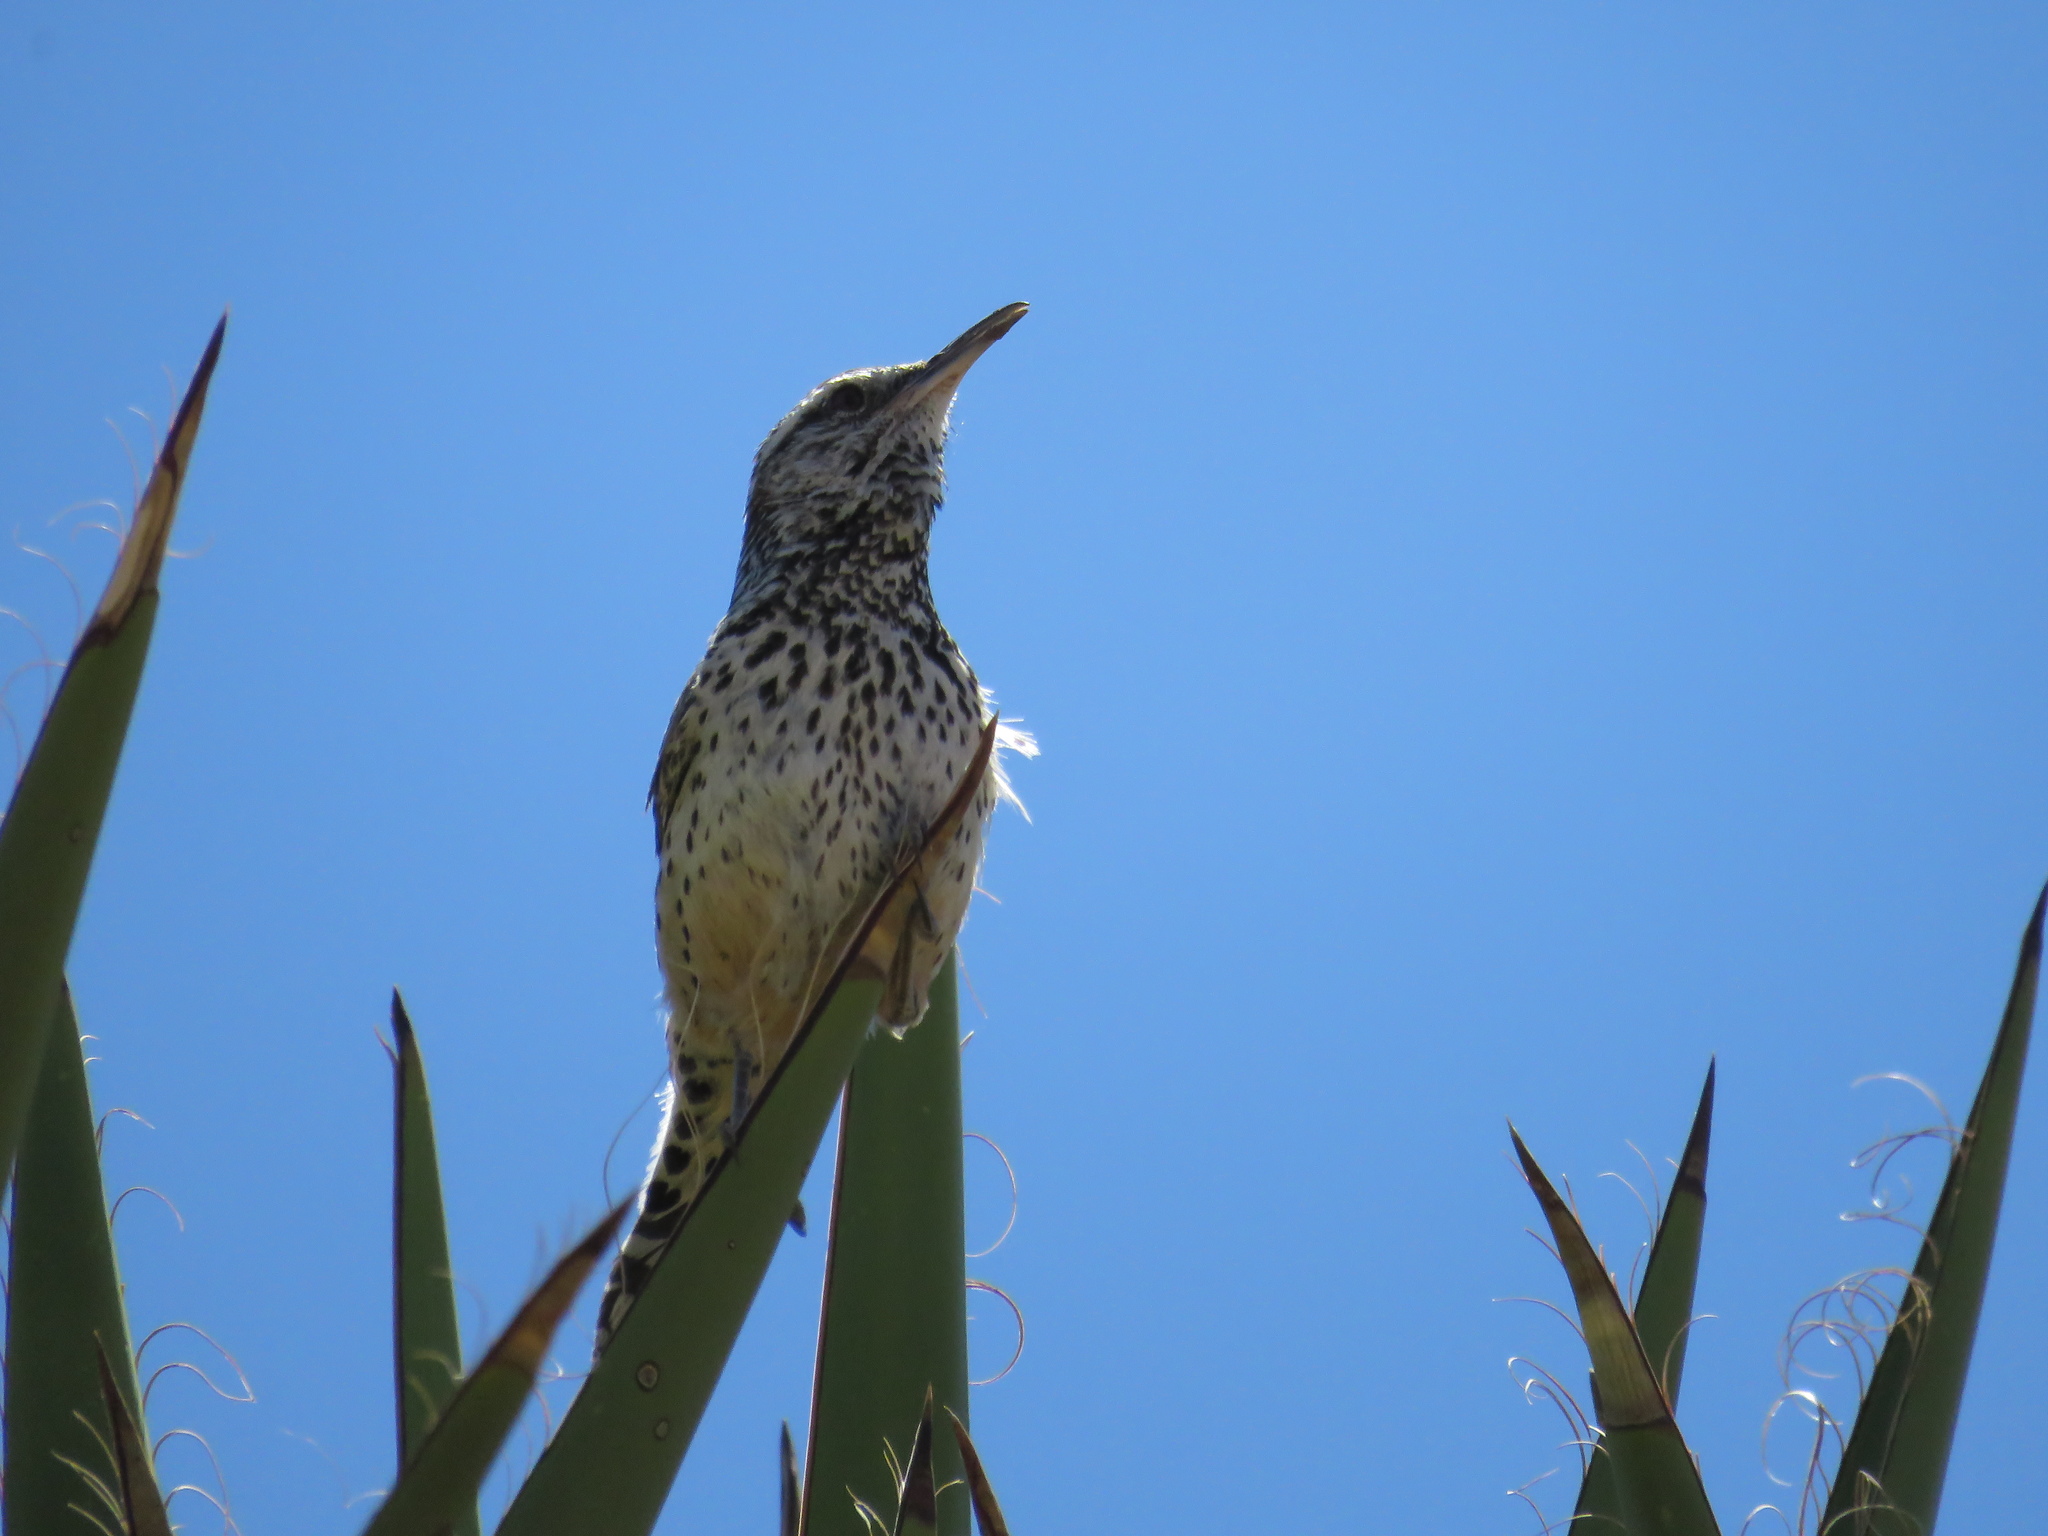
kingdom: Animalia
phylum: Chordata
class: Aves
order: Passeriformes
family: Troglodytidae
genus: Campylorhynchus
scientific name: Campylorhynchus brunneicapillus
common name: Cactus wren
